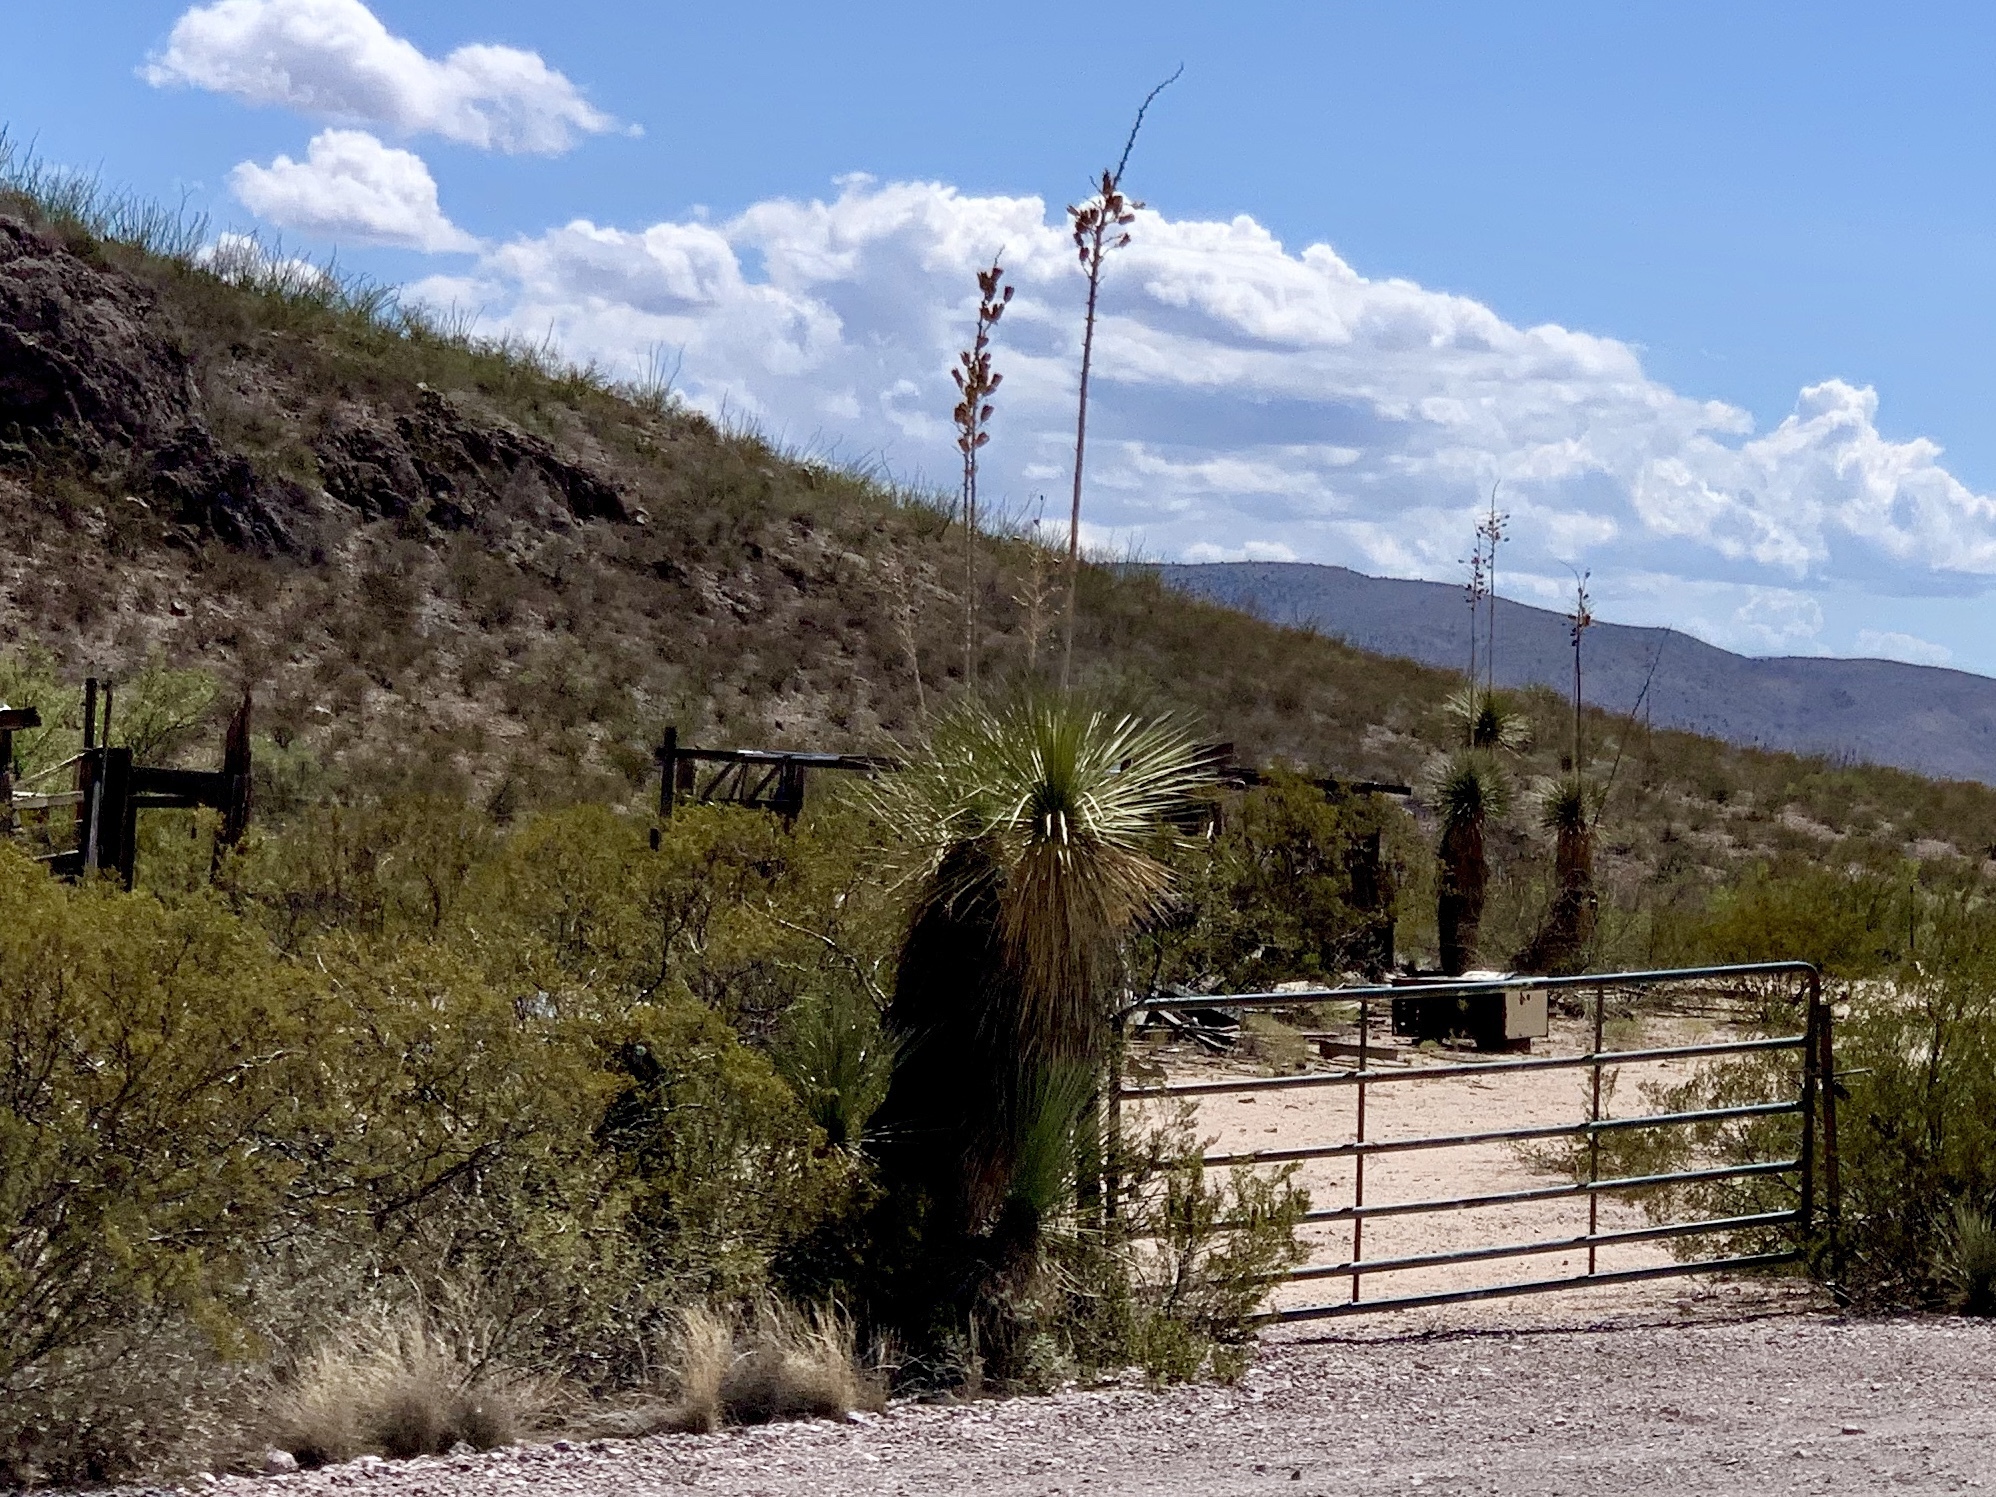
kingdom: Plantae
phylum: Tracheophyta
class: Liliopsida
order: Asparagales
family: Asparagaceae
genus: Yucca
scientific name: Yucca elata
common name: Palmella
